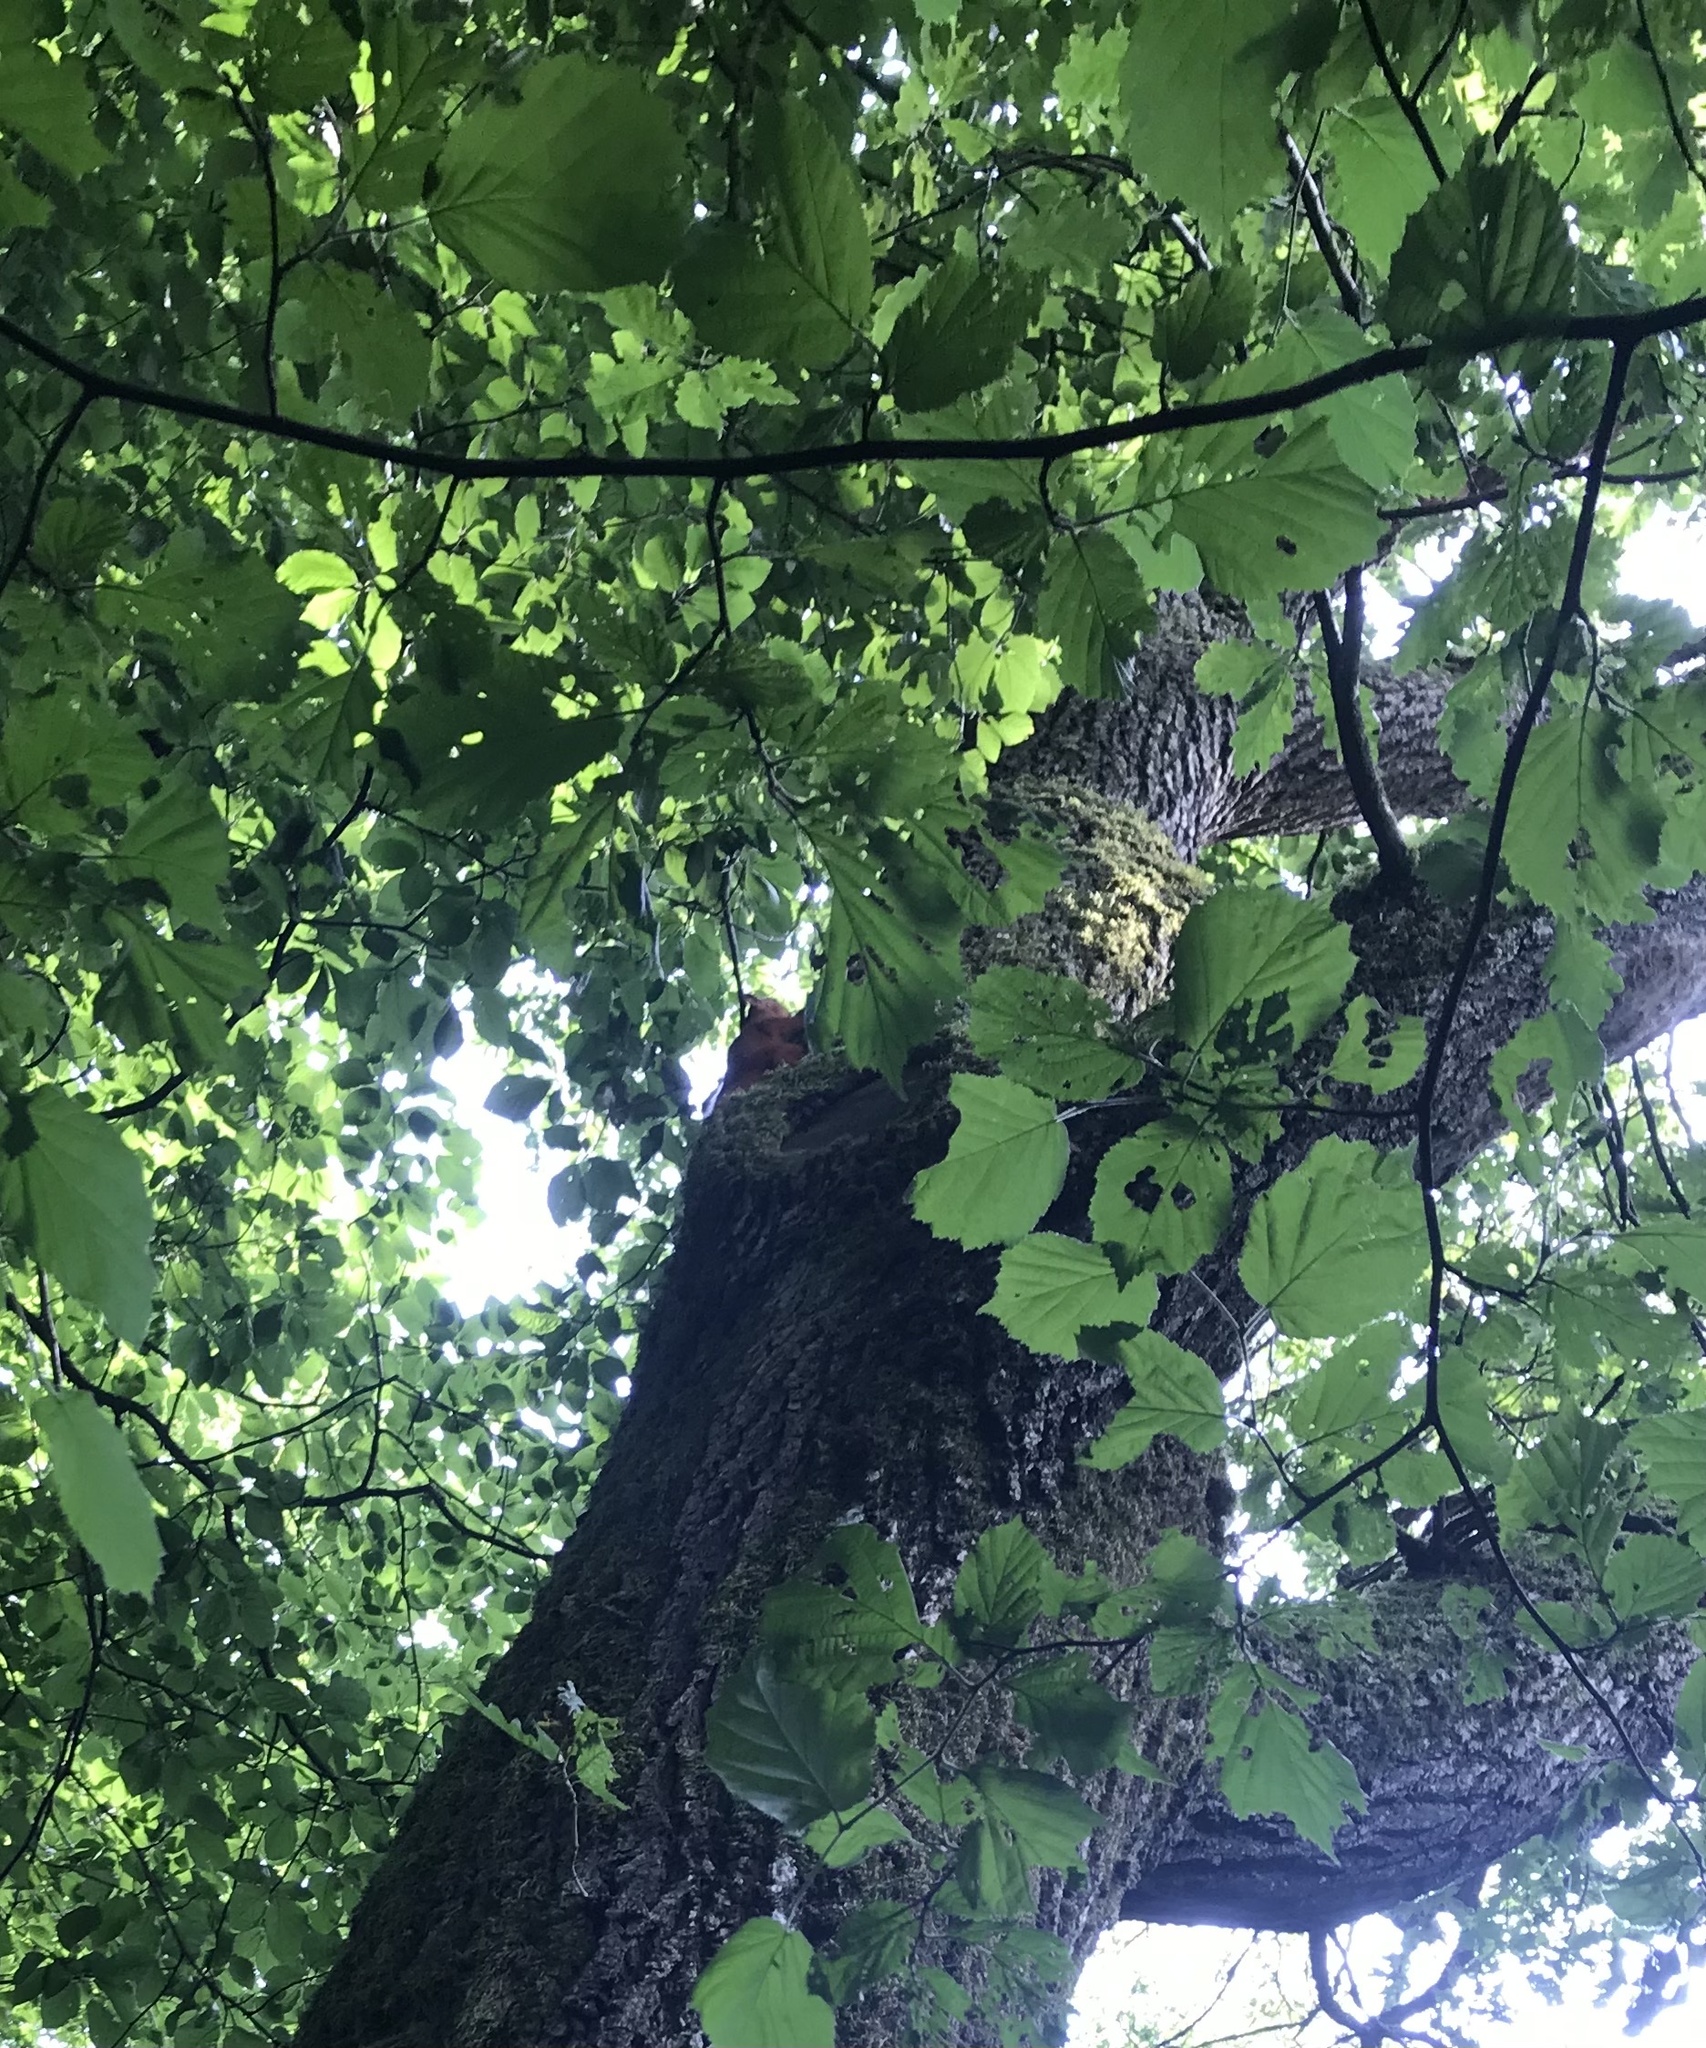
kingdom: Animalia
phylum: Chordata
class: Mammalia
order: Rodentia
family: Sciuridae
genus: Sciurus
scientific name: Sciurus vulgaris
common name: Eurasian red squirrel
